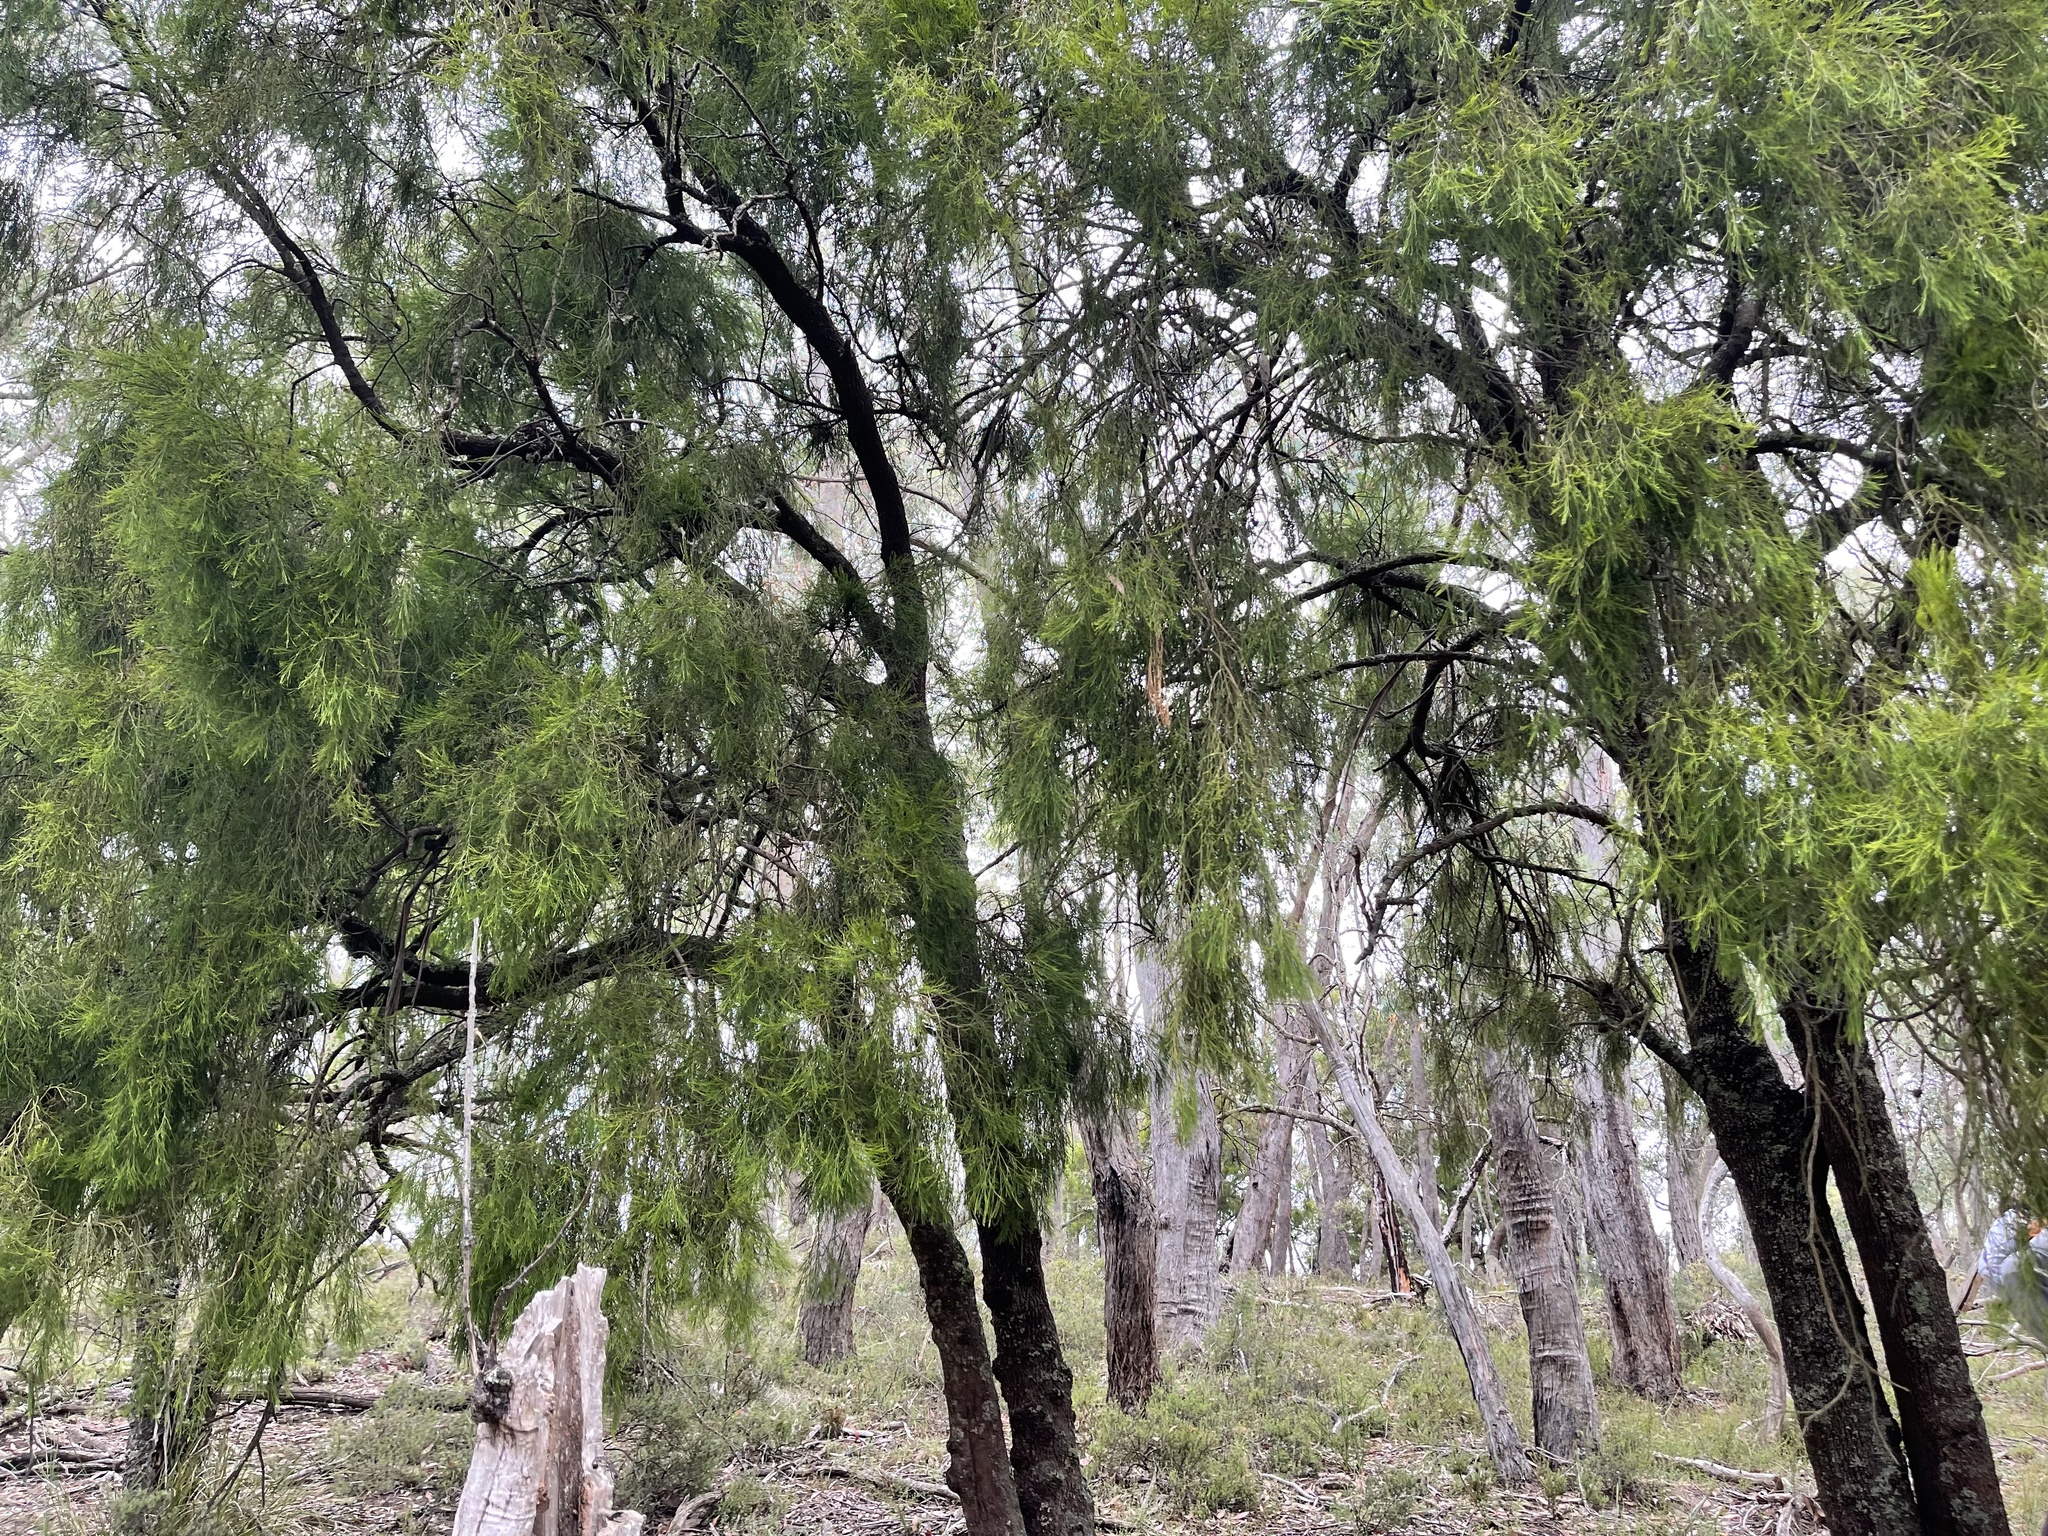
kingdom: Plantae
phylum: Tracheophyta
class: Magnoliopsida
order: Santalales
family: Santalaceae
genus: Exocarpos
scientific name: Exocarpos cupressiformis
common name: Cherry ballart
